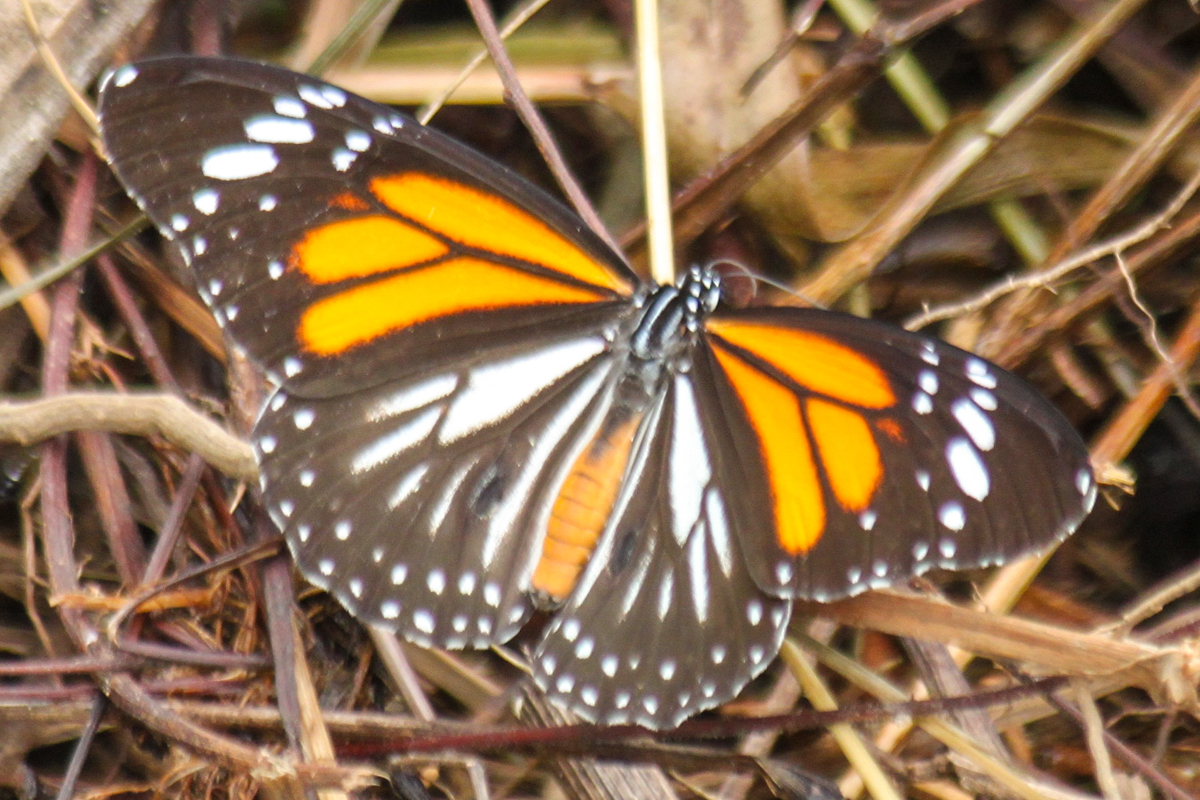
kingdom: Animalia
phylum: Arthropoda
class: Insecta
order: Lepidoptera
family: Nymphalidae
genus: Danaus
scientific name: Danaus melanippus
